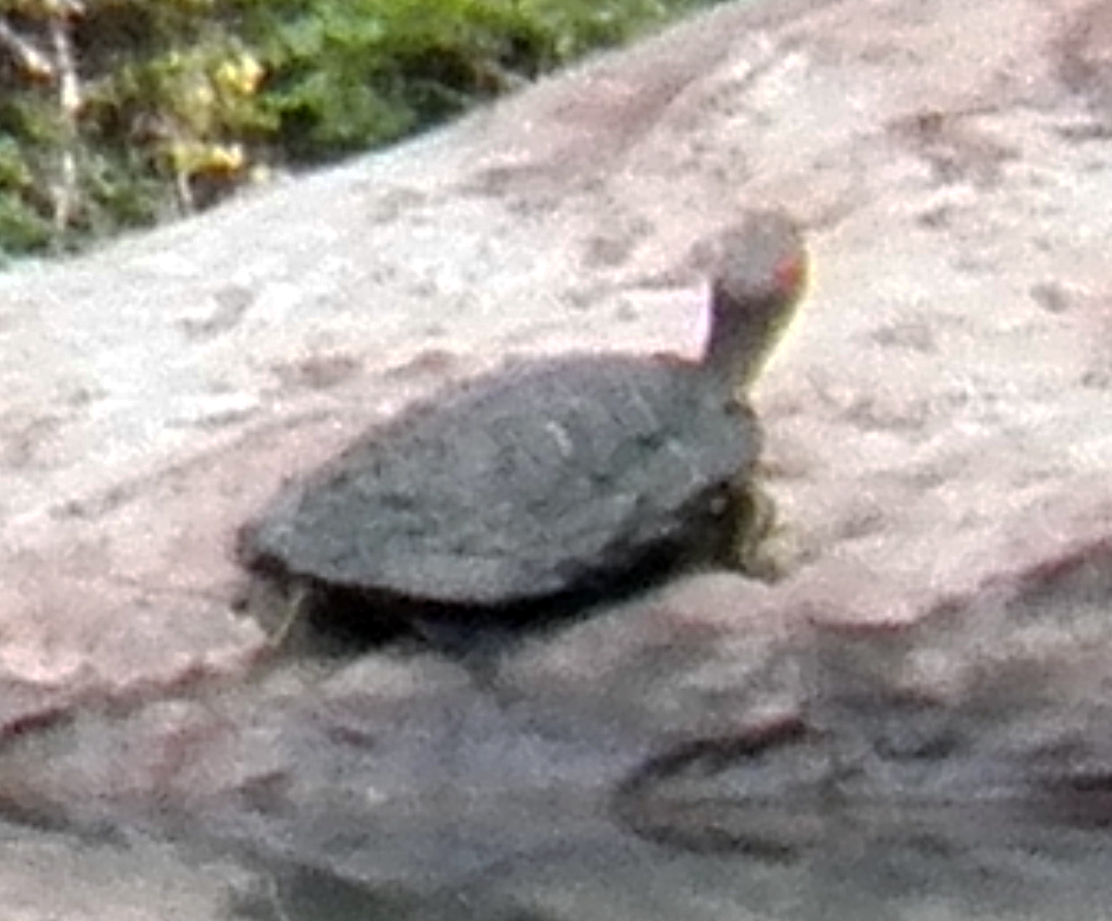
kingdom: Animalia
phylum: Chordata
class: Testudines
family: Emydidae
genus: Trachemys
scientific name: Trachemys scripta
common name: Slider
